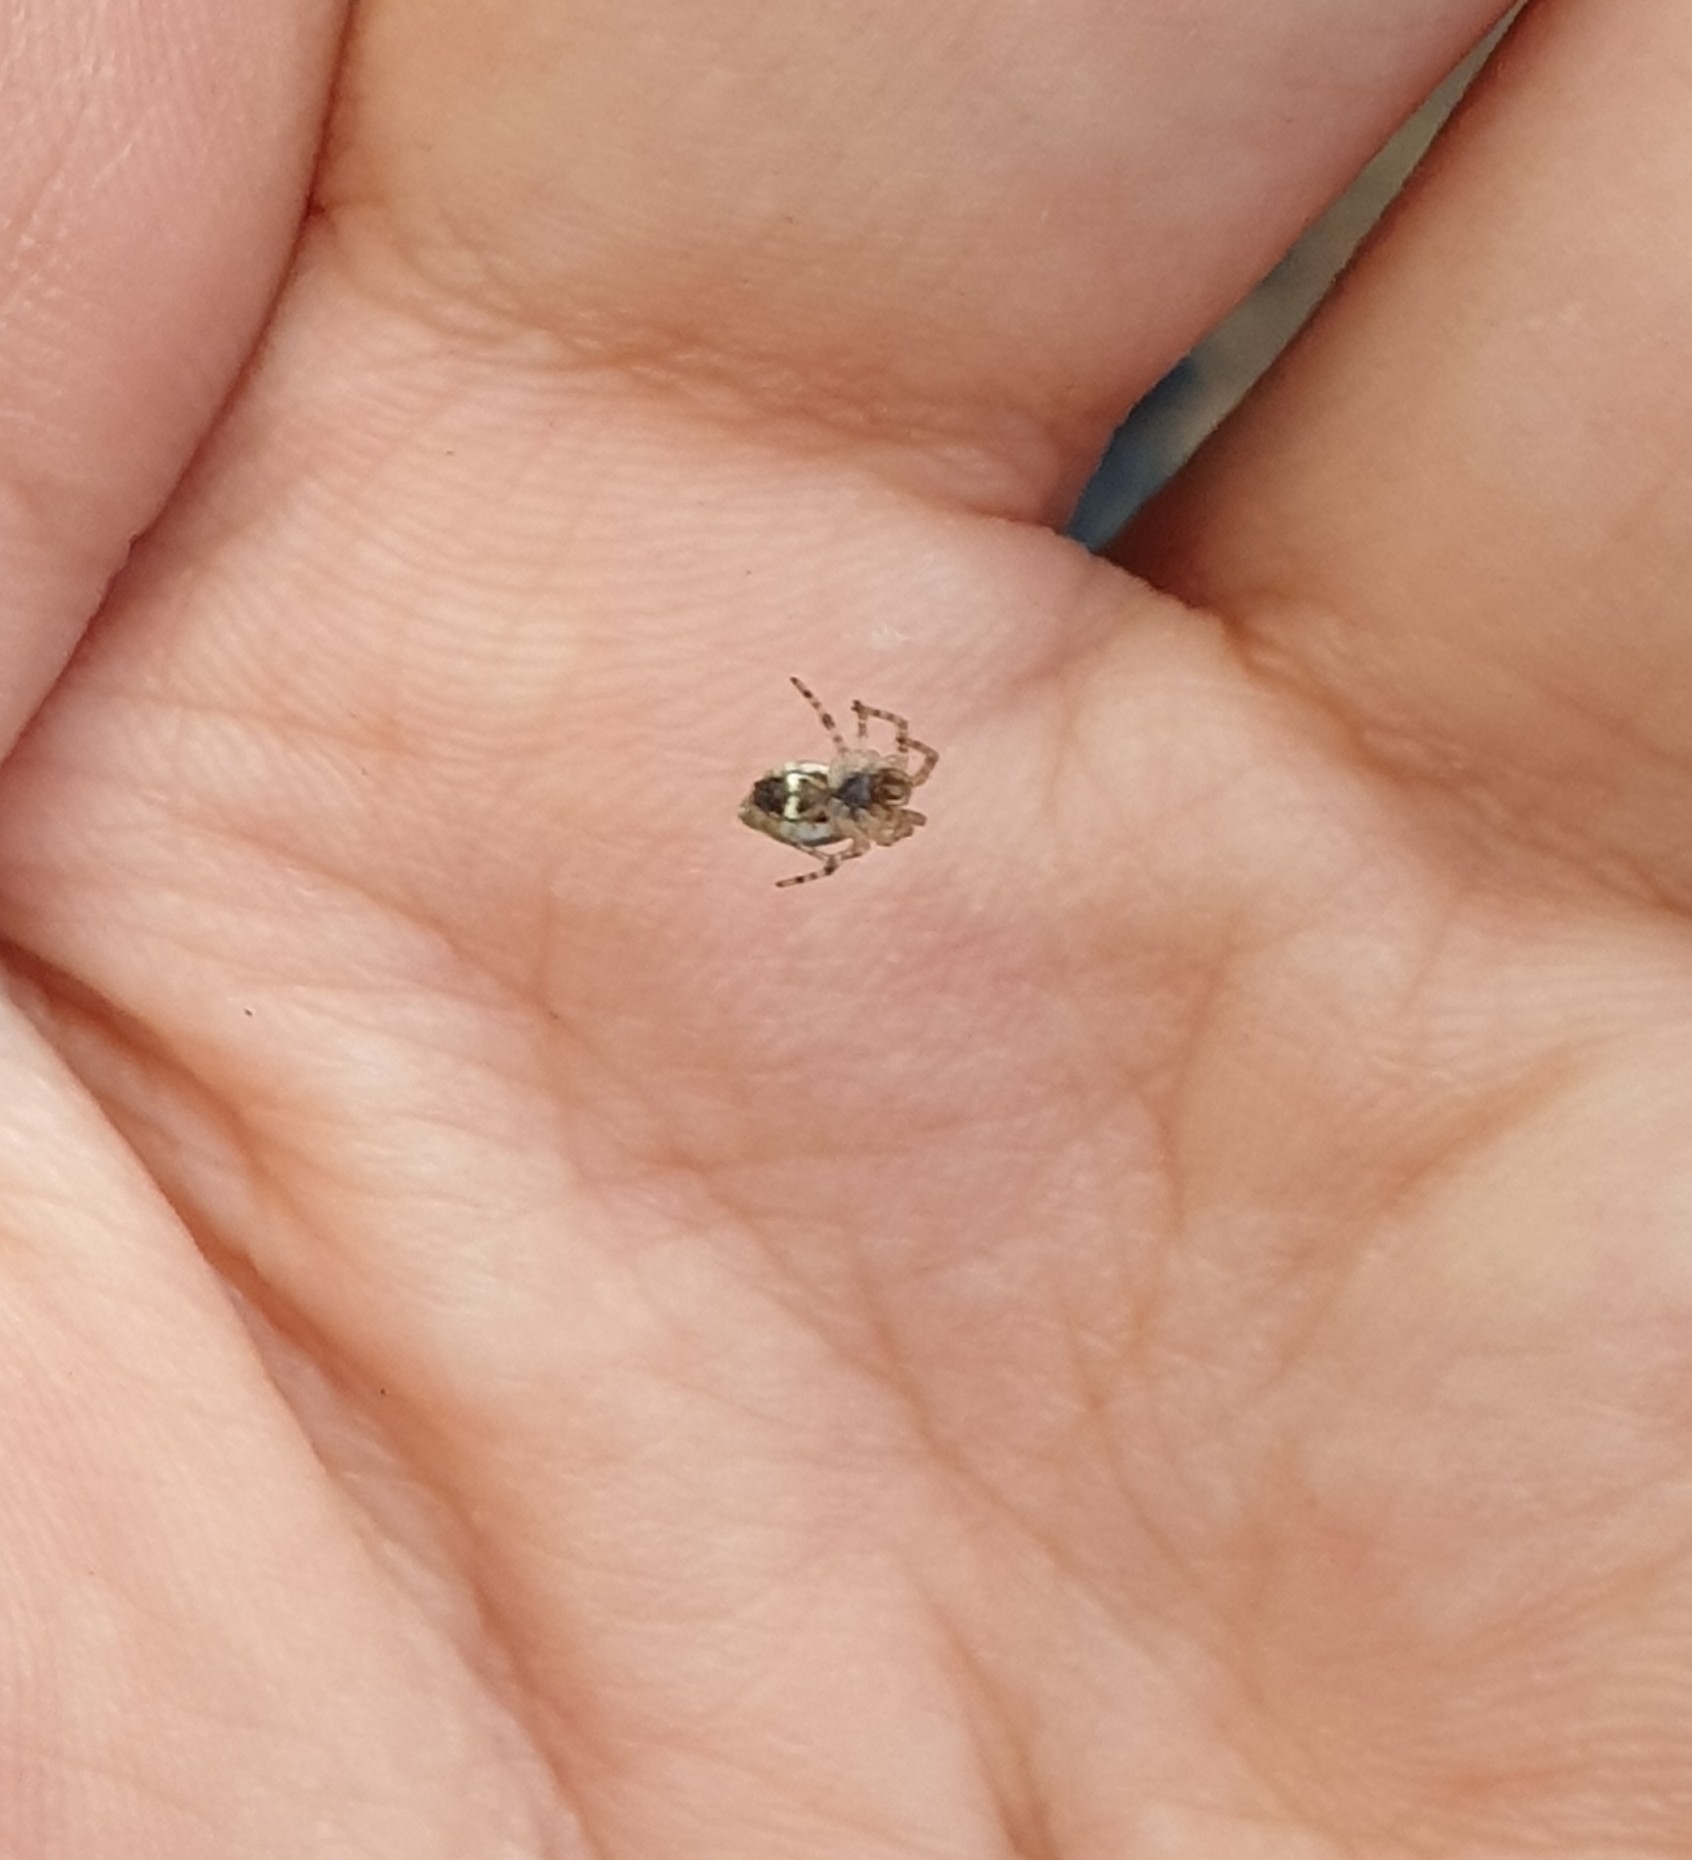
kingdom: Animalia
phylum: Arthropoda
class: Arachnida
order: Araneae
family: Araneidae
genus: Cyclosa
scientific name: Cyclosa conica
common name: Conical trashline orbweaver
